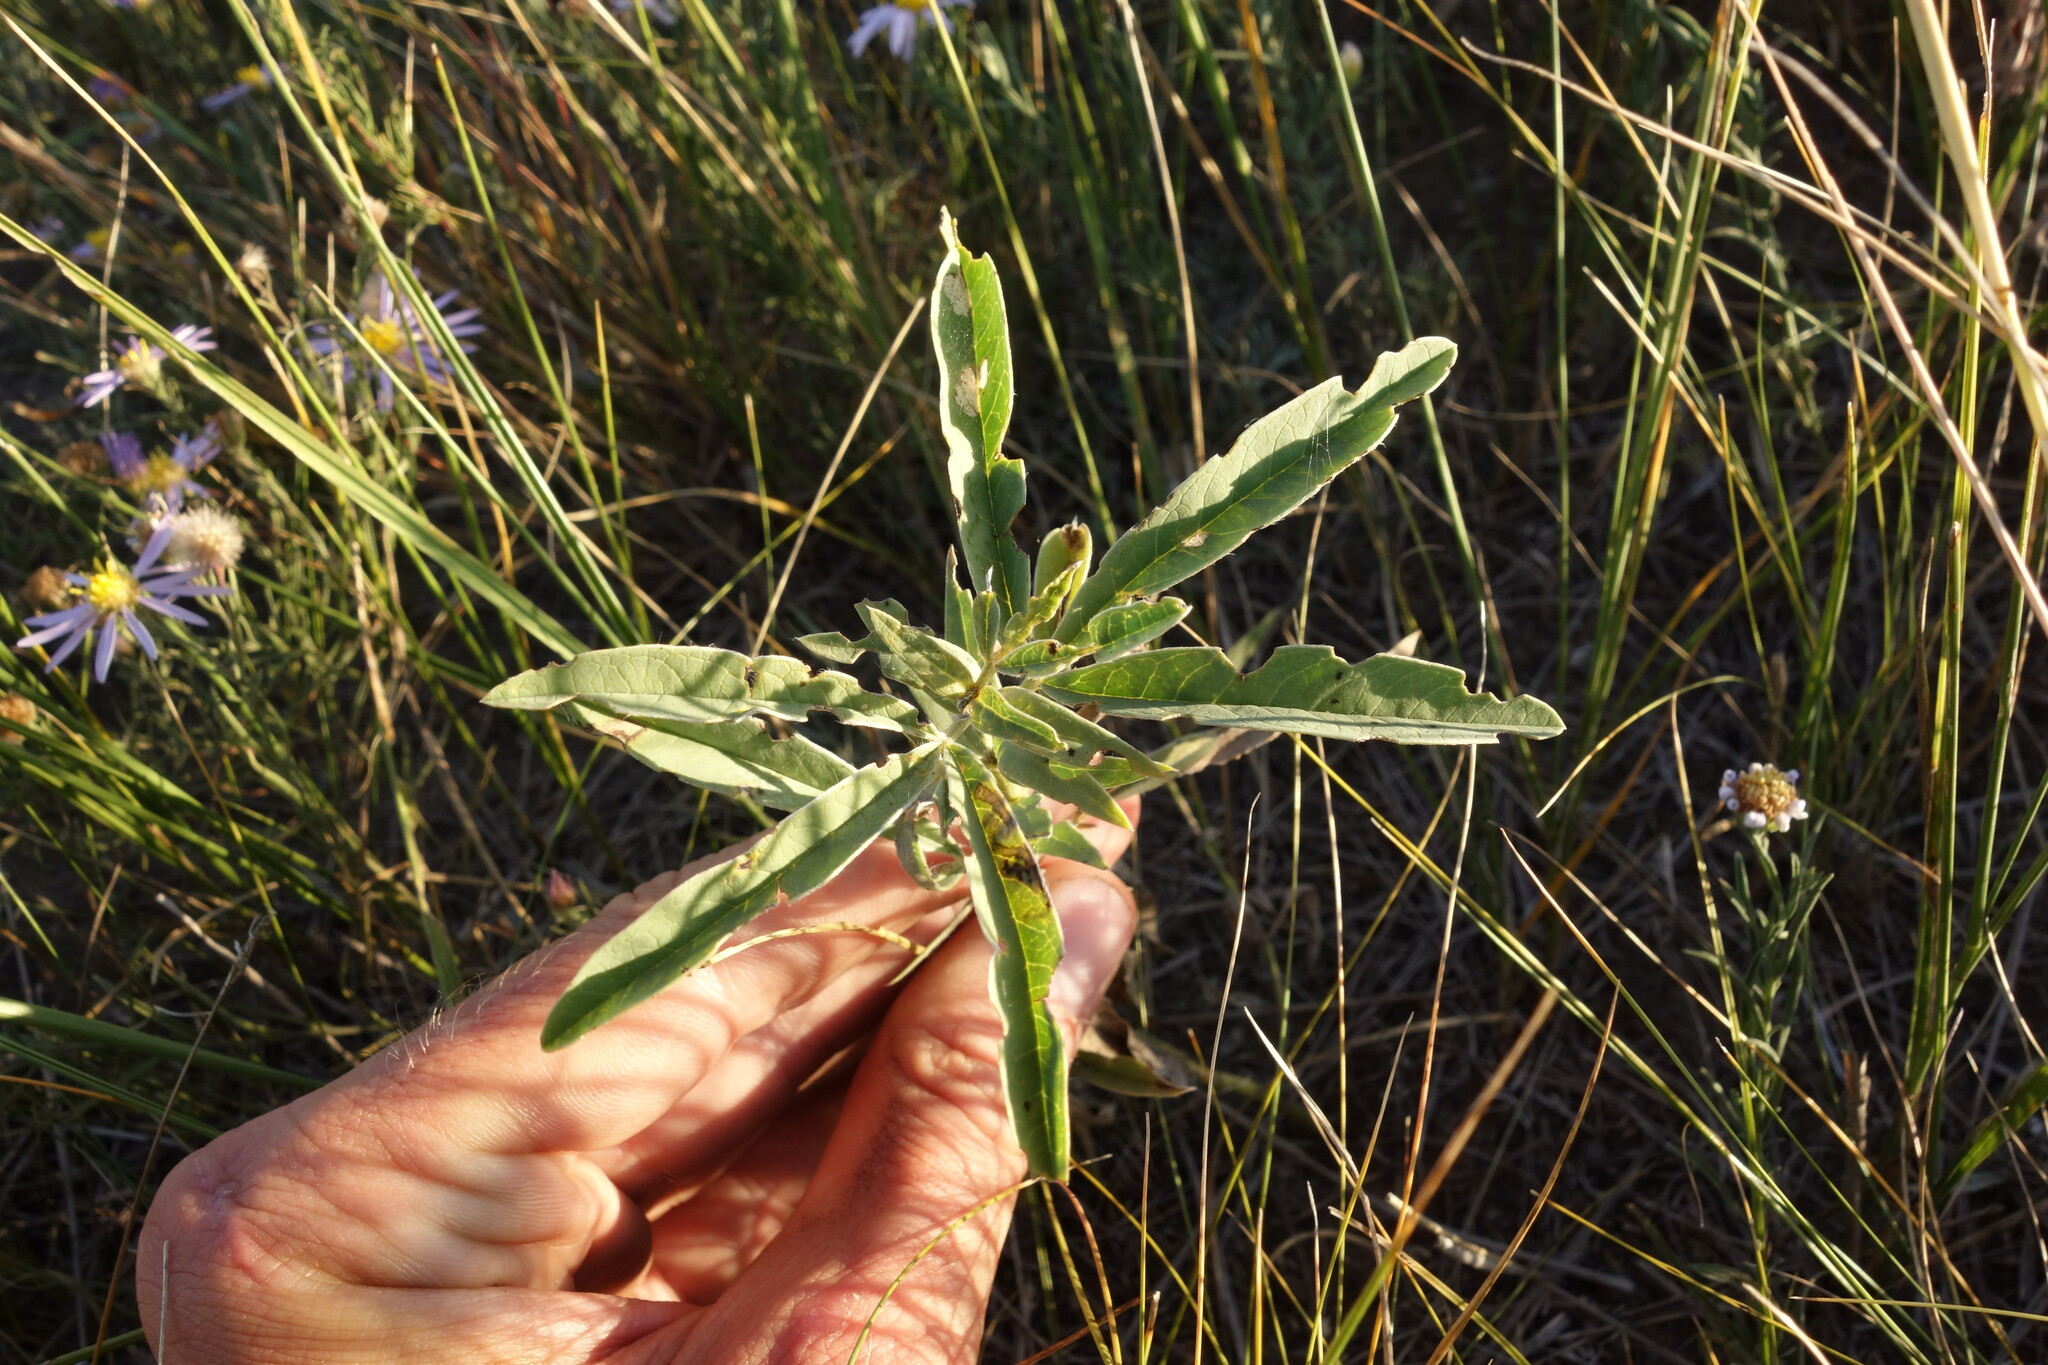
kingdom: Plantae
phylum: Tracheophyta
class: Magnoliopsida
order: Fabales
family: Fabaceae
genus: Thermopsis
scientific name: Thermopsis lanceolata
